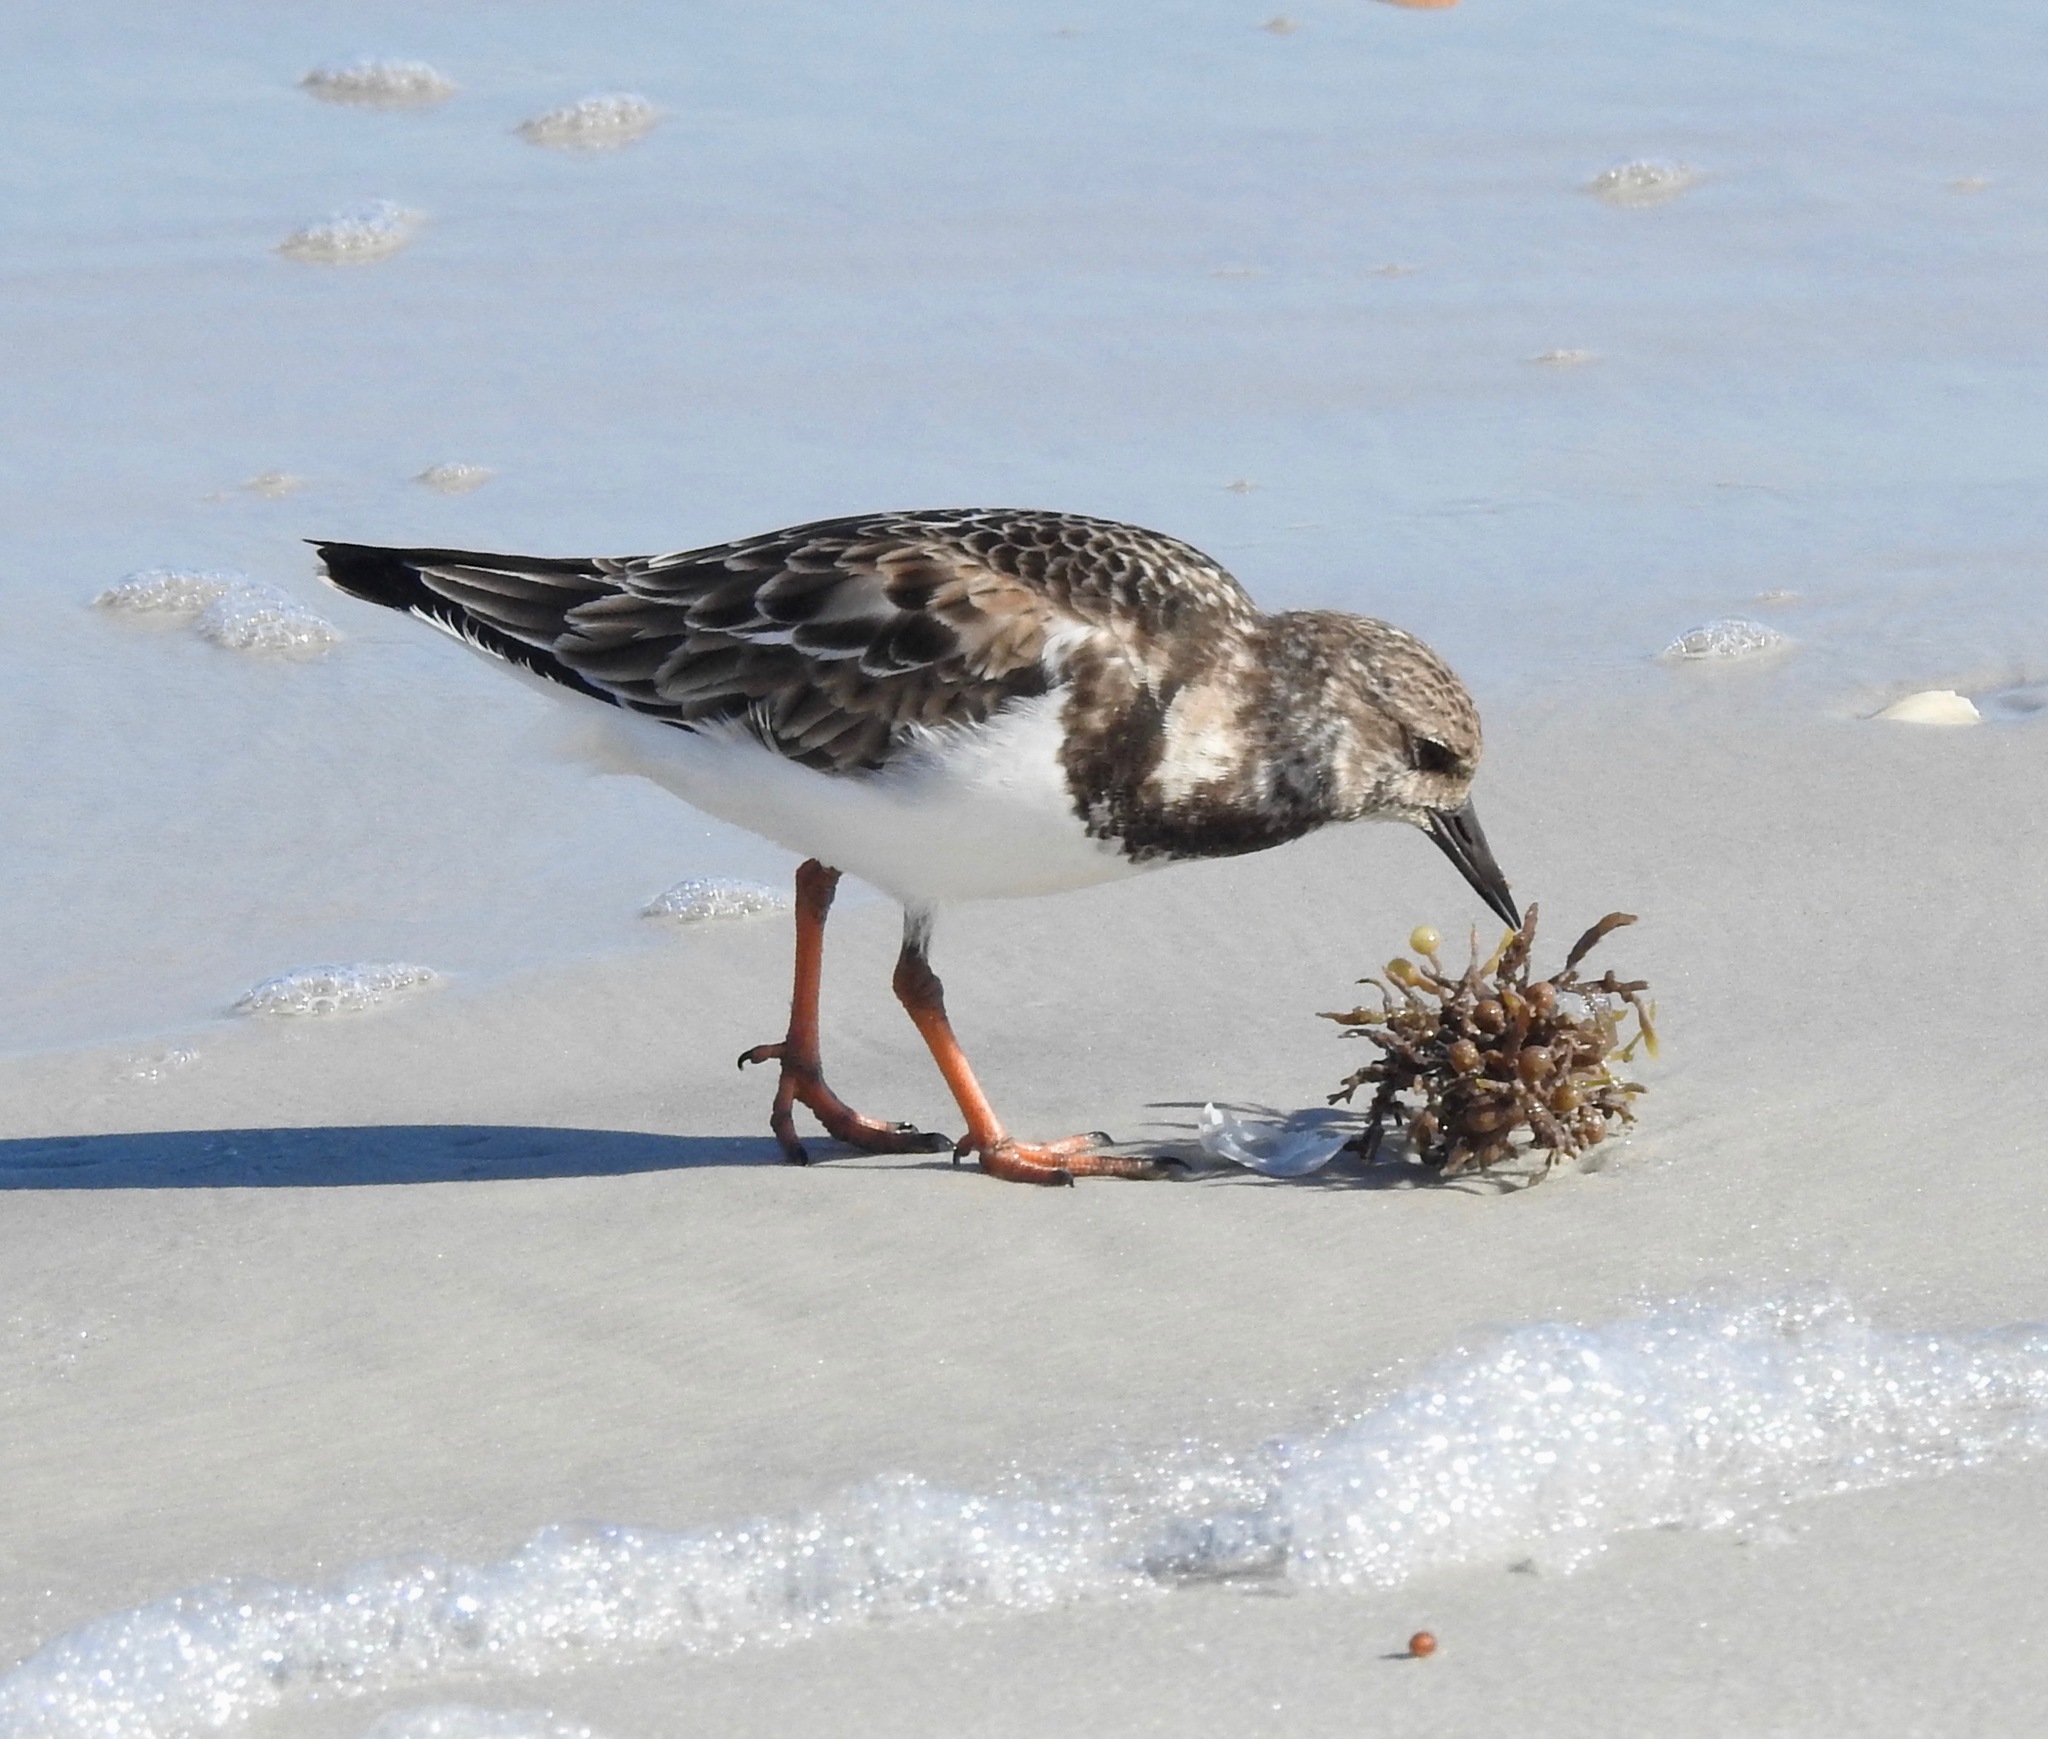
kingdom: Animalia
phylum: Chordata
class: Aves
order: Charadriiformes
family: Scolopacidae
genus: Arenaria
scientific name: Arenaria interpres
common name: Ruddy turnstone
